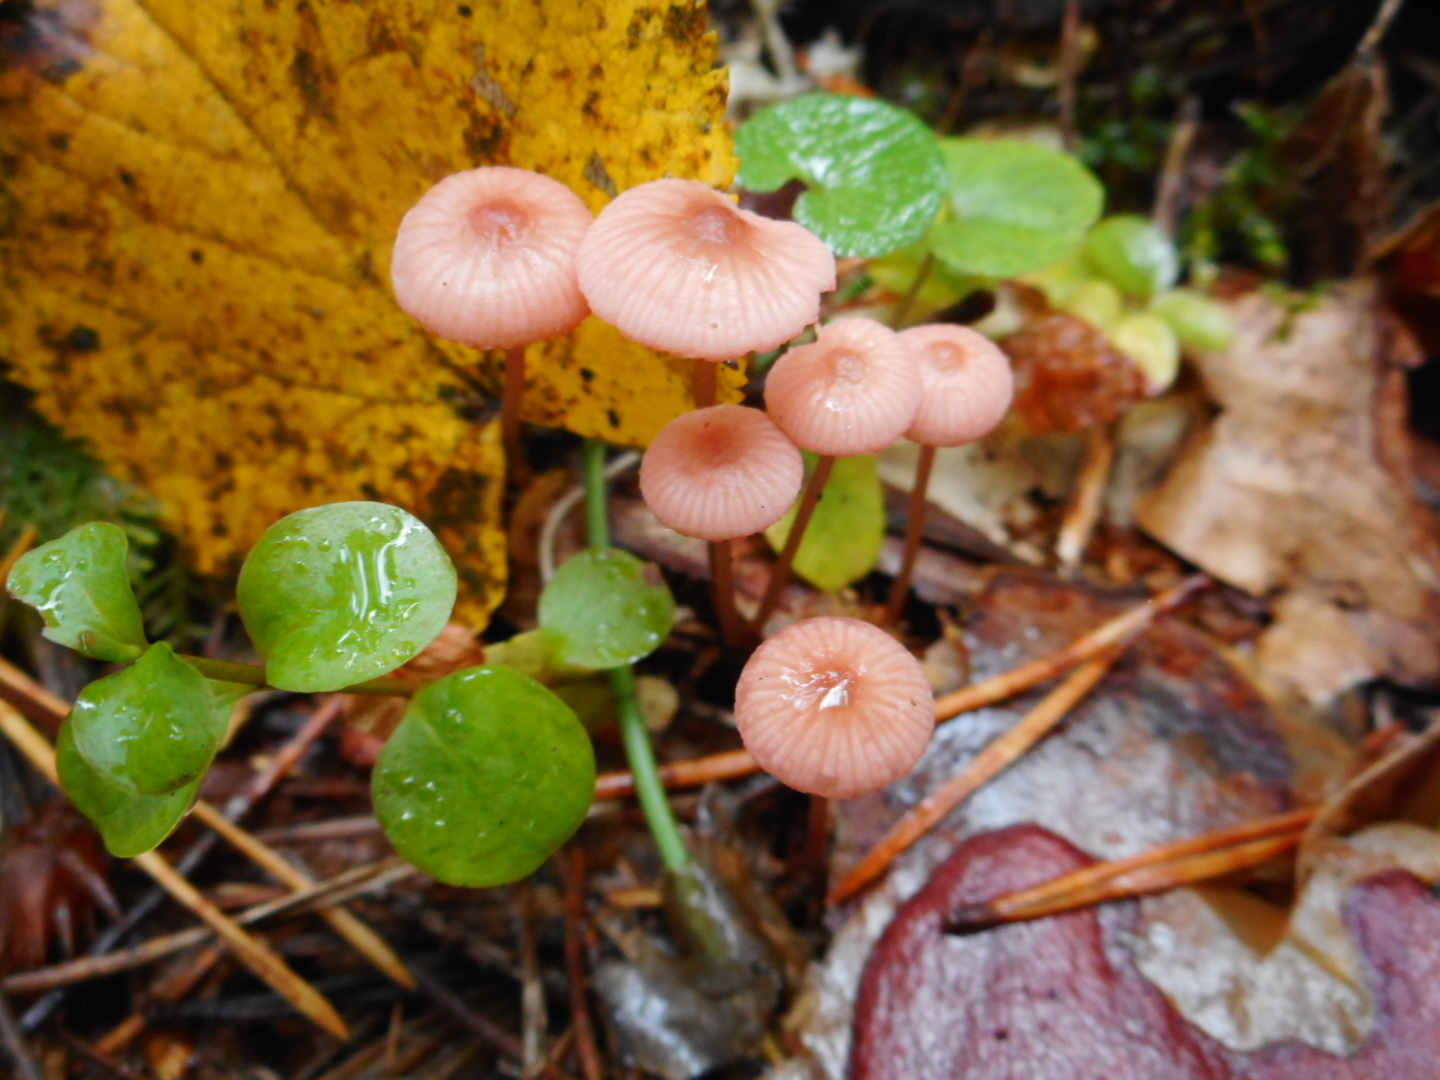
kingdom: Fungi
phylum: Basidiomycota
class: Agaricomycetes
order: Agaricales
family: Mycenaceae
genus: Mycena
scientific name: Mycena rosella
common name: Pink bonnet
